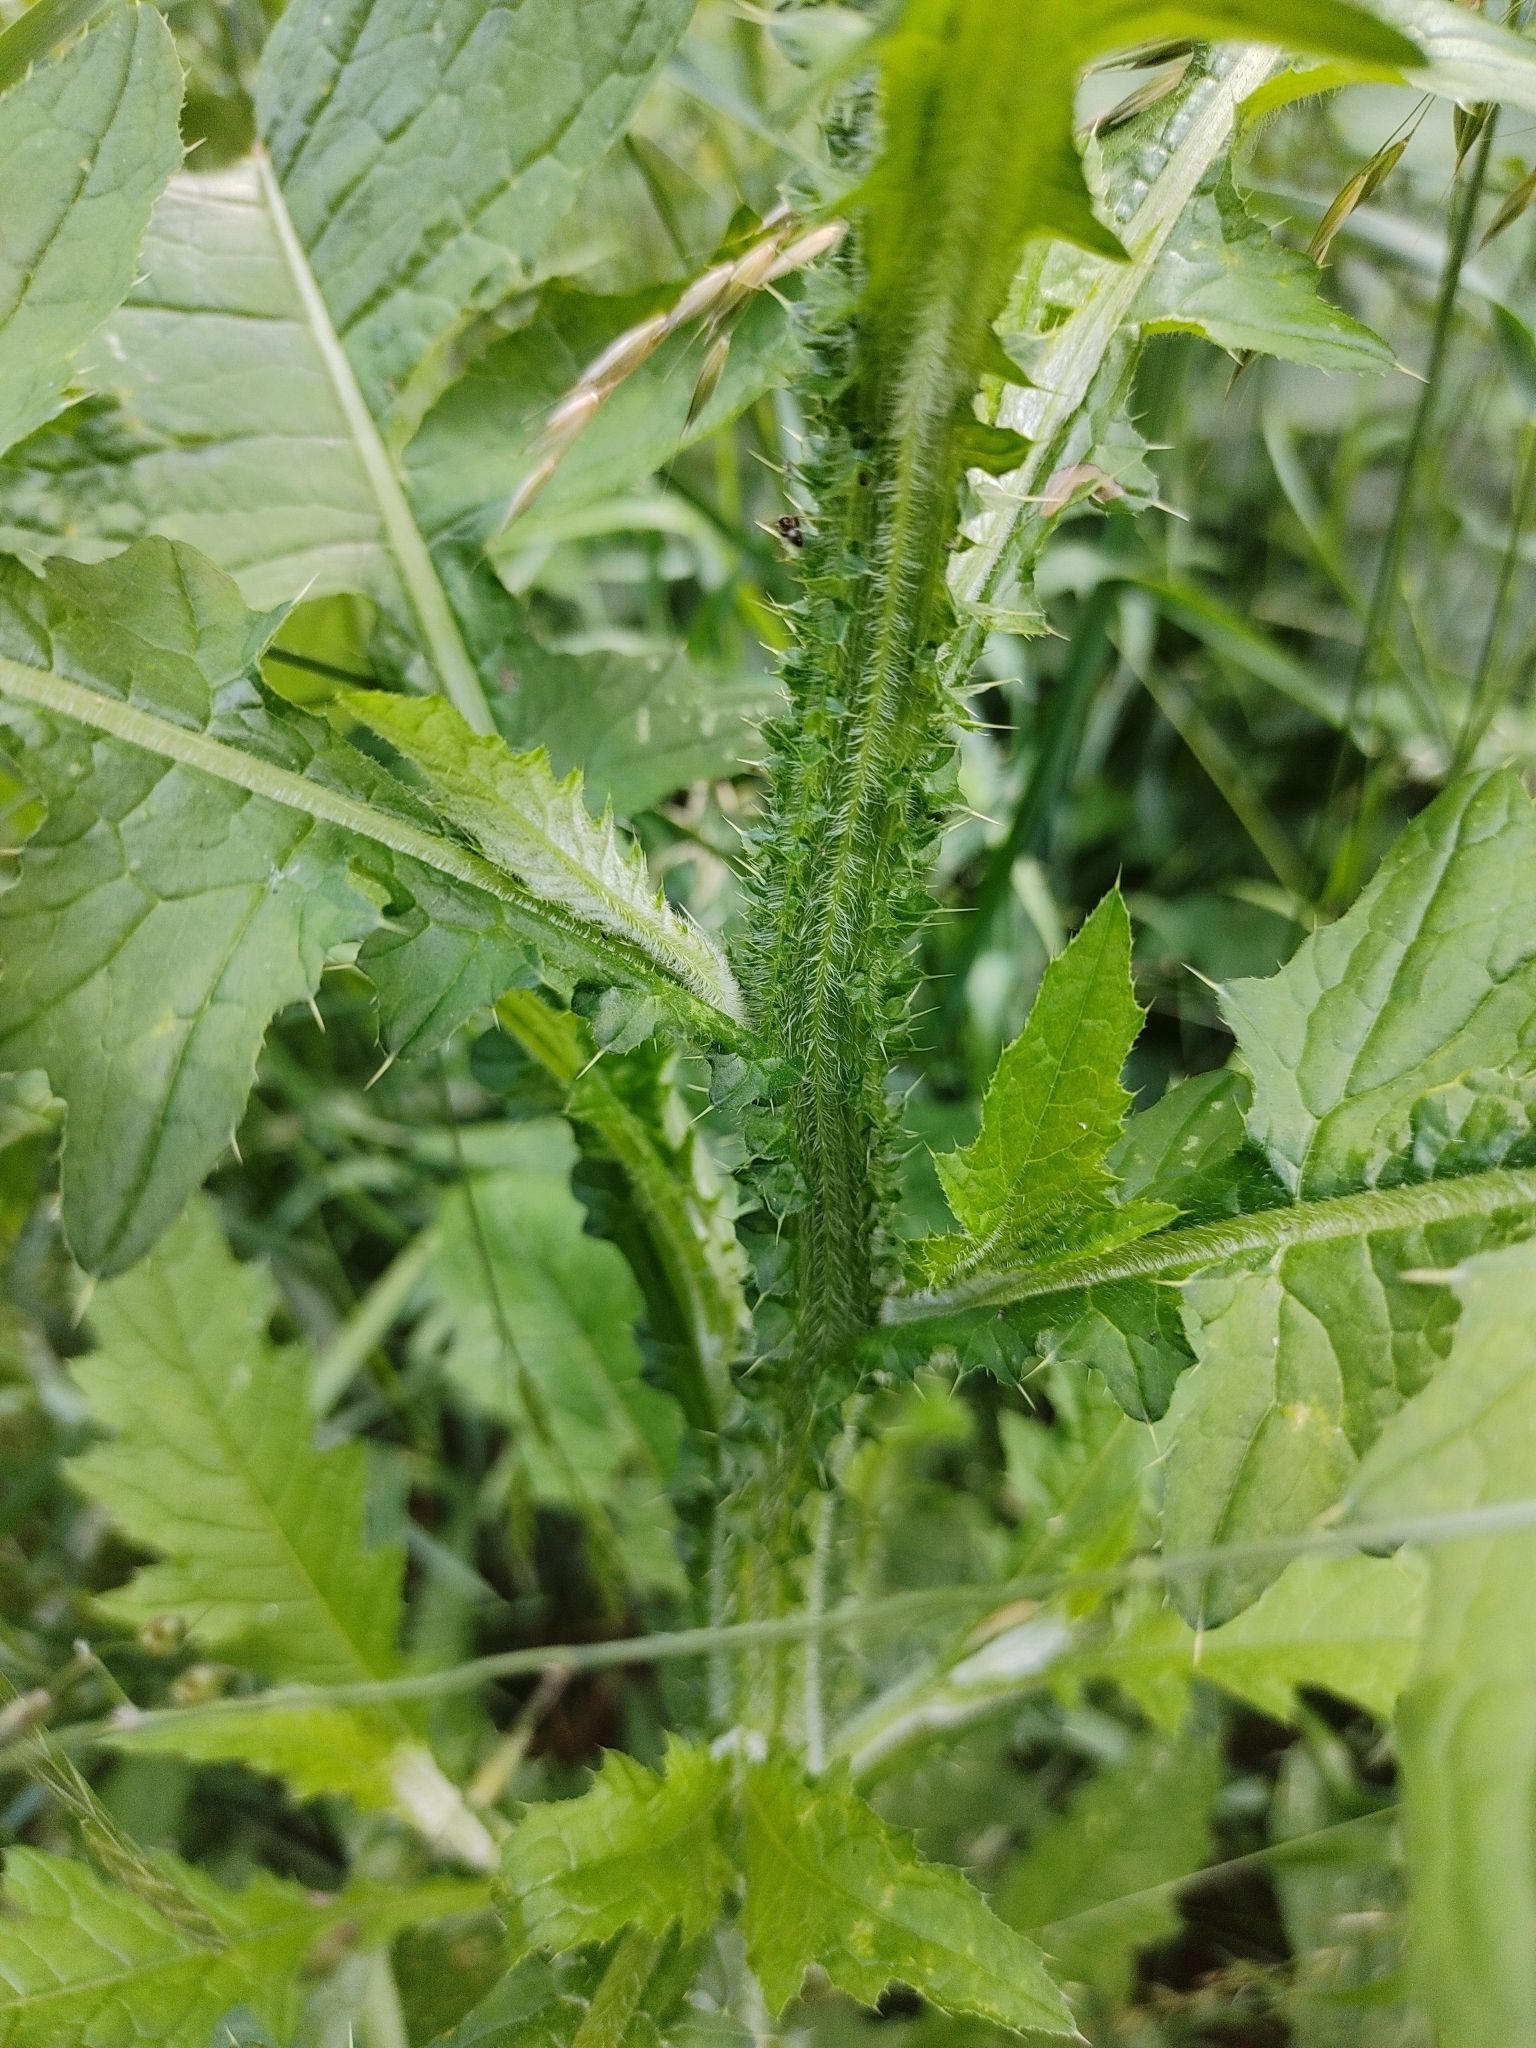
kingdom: Plantae
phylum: Tracheophyta
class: Magnoliopsida
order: Asterales
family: Asteraceae
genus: Carduus
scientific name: Carduus crispus
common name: Welted thistle
